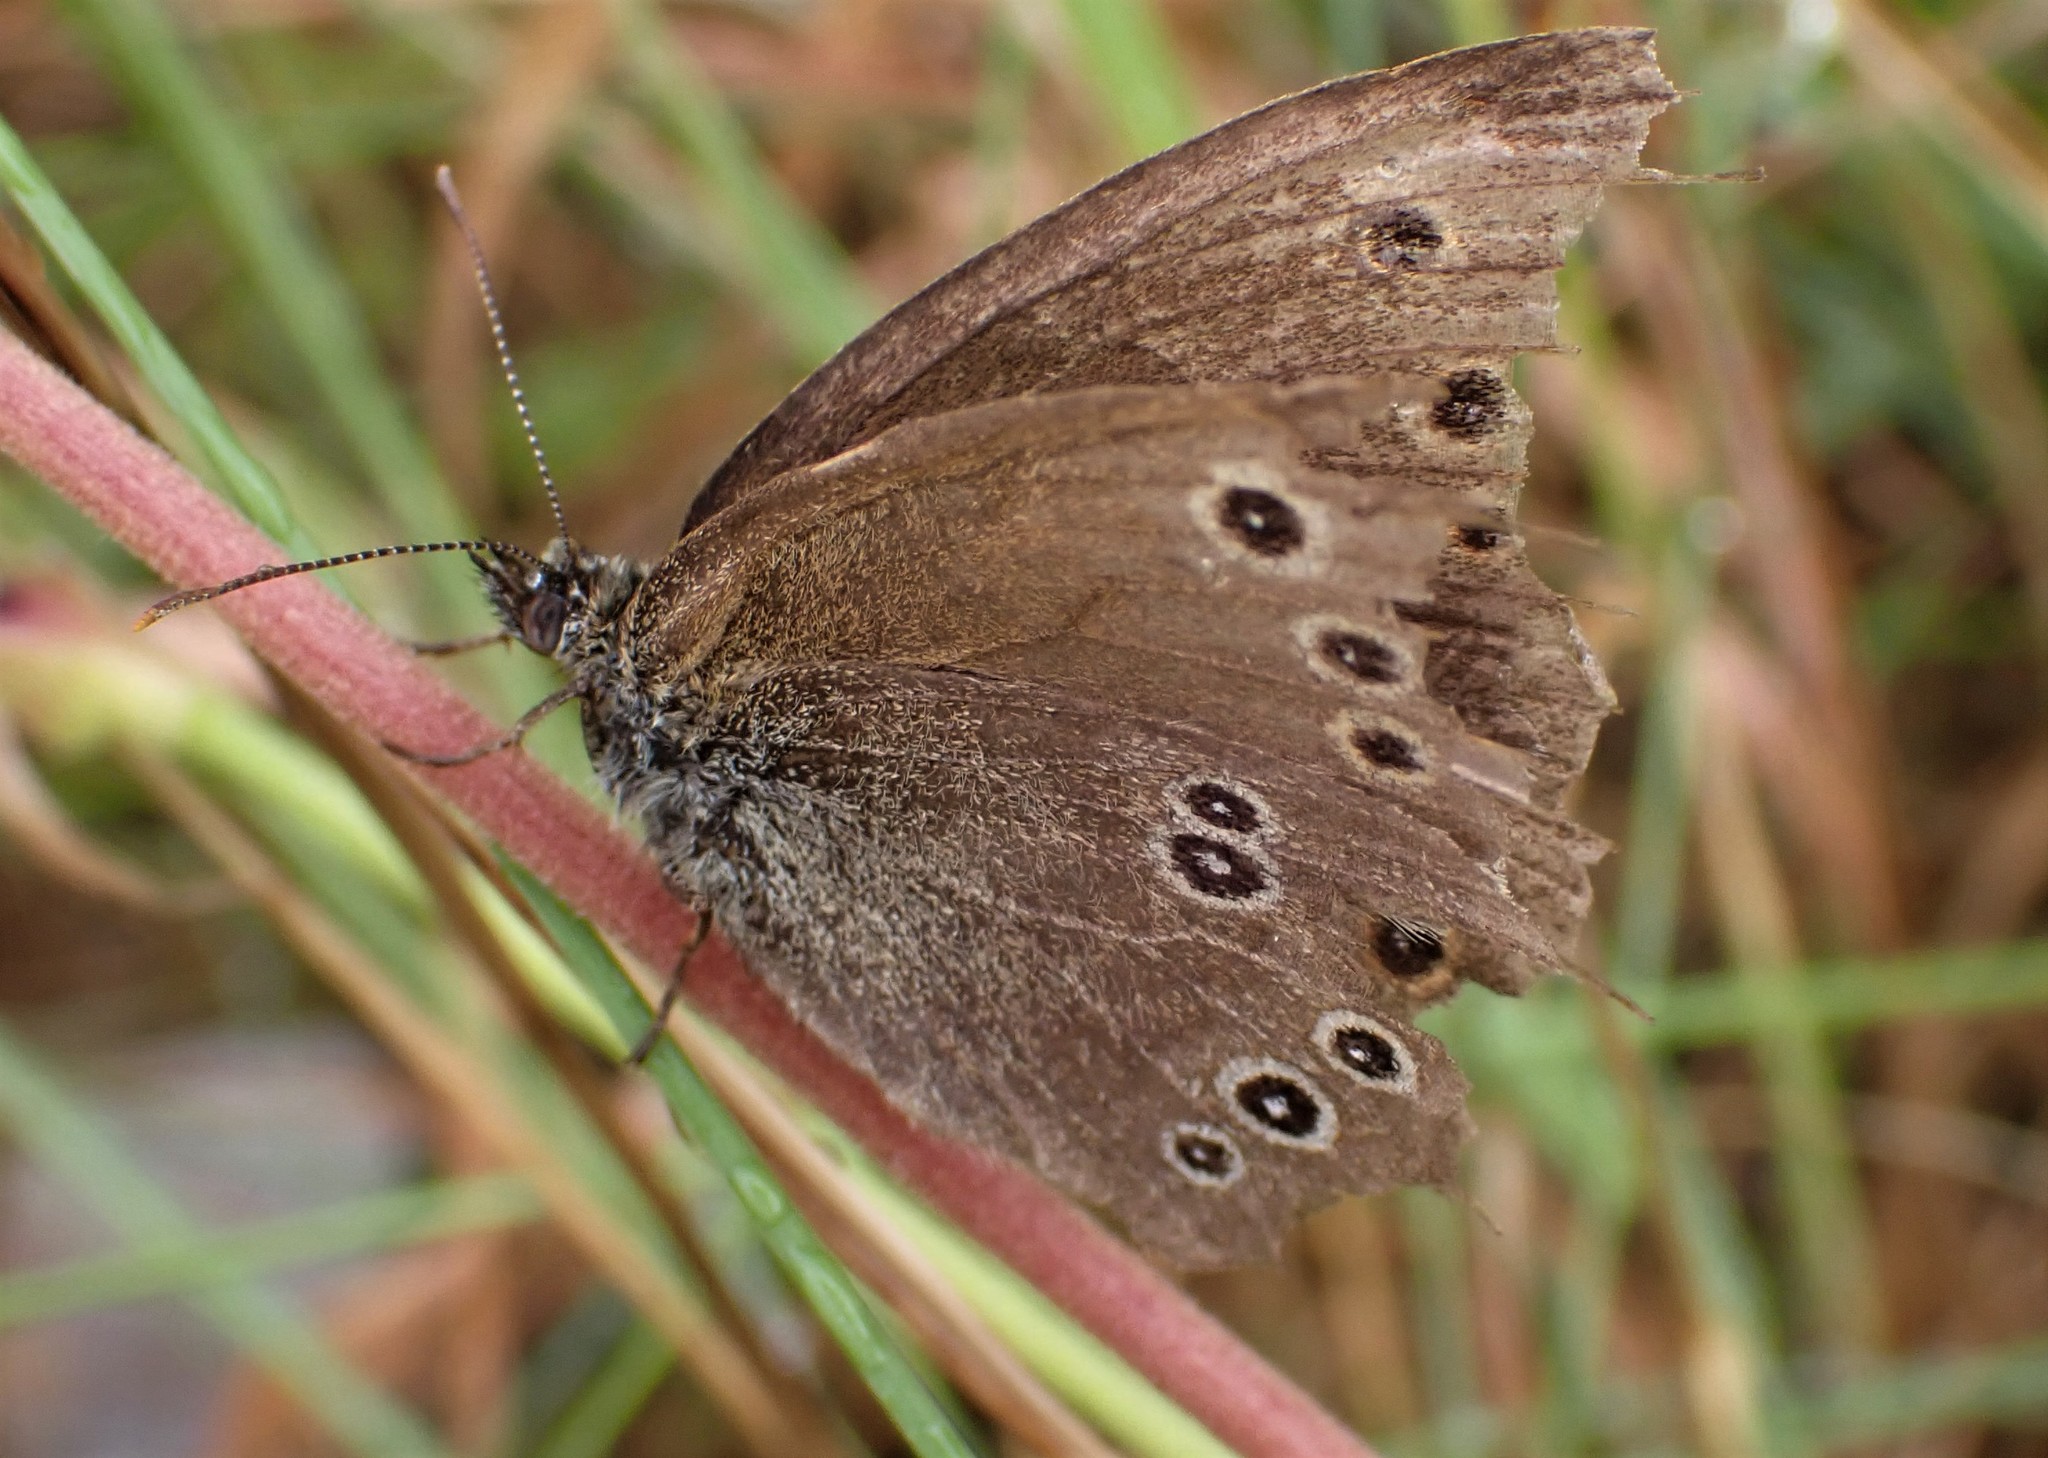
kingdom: Animalia
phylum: Arthropoda
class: Insecta
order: Lepidoptera
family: Nymphalidae
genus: Aphantopus
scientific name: Aphantopus hyperantus
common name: Ringlet
